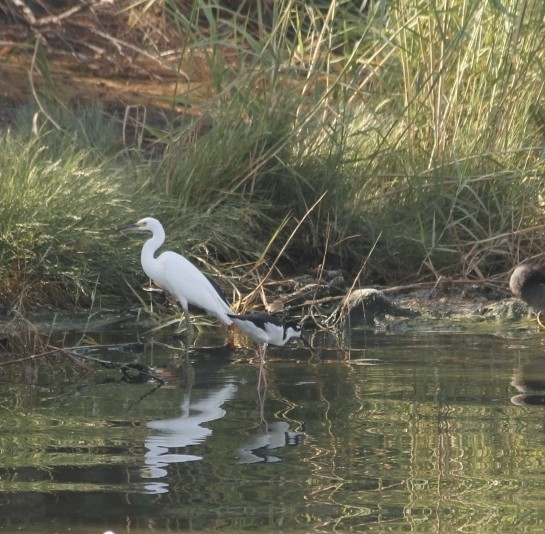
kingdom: Animalia
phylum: Chordata
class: Aves
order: Charadriiformes
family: Recurvirostridae
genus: Himantopus
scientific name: Himantopus mexicanus
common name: Black-necked stilt
